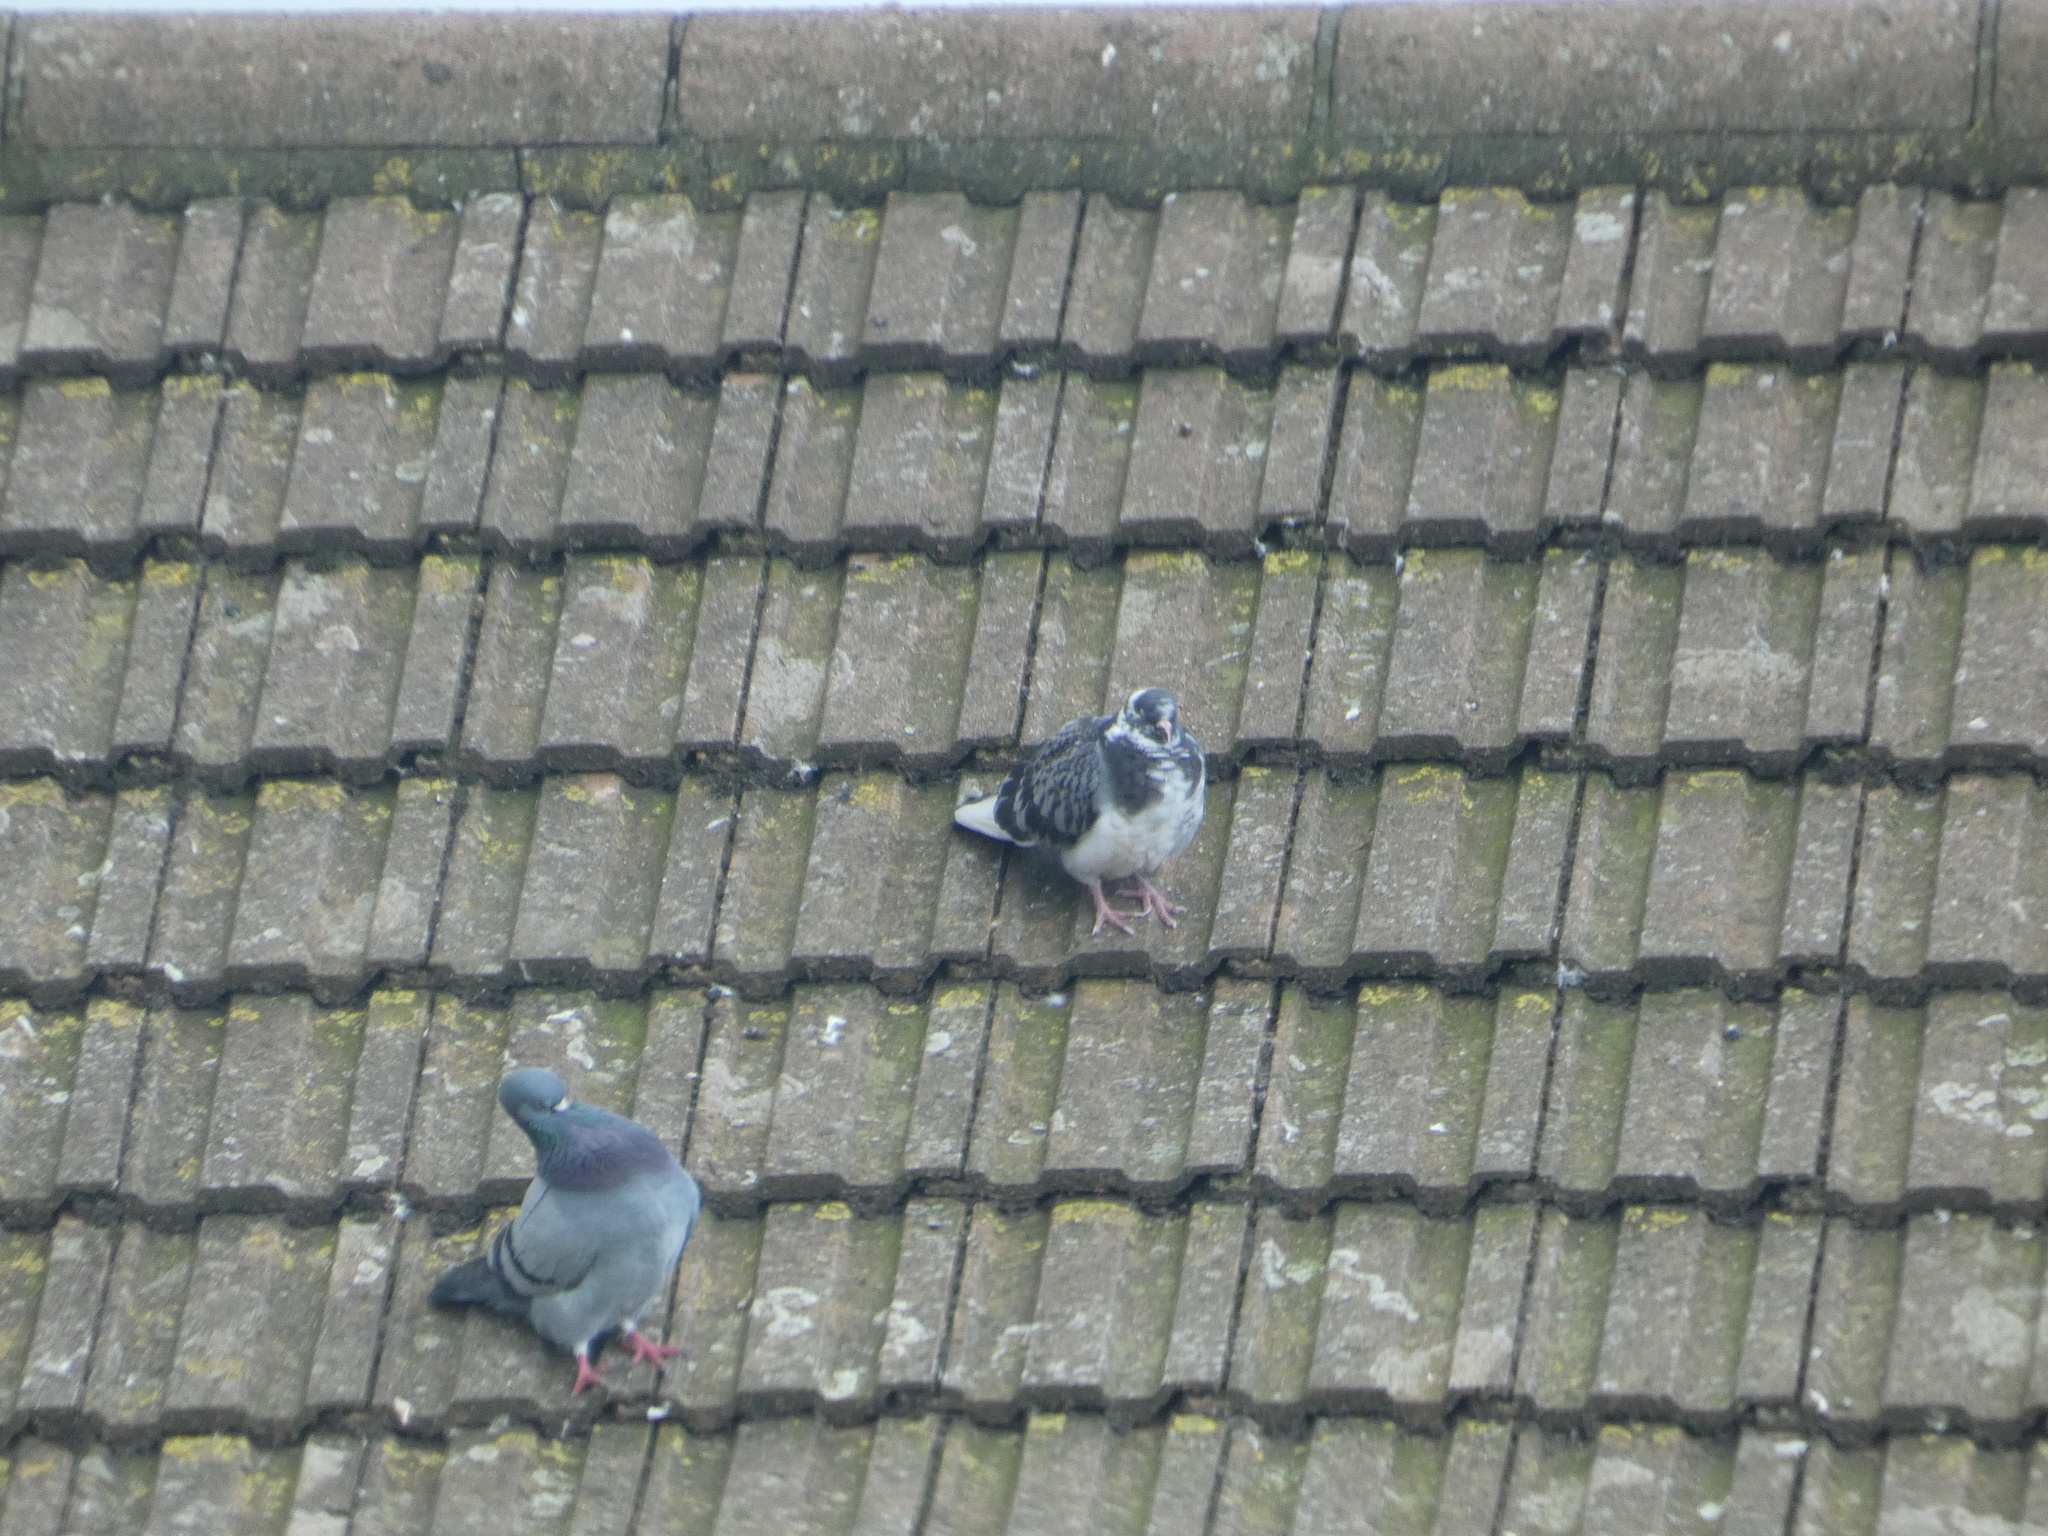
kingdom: Animalia
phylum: Chordata
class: Aves
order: Columbiformes
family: Columbidae
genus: Columba
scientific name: Columba livia
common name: Rock pigeon
